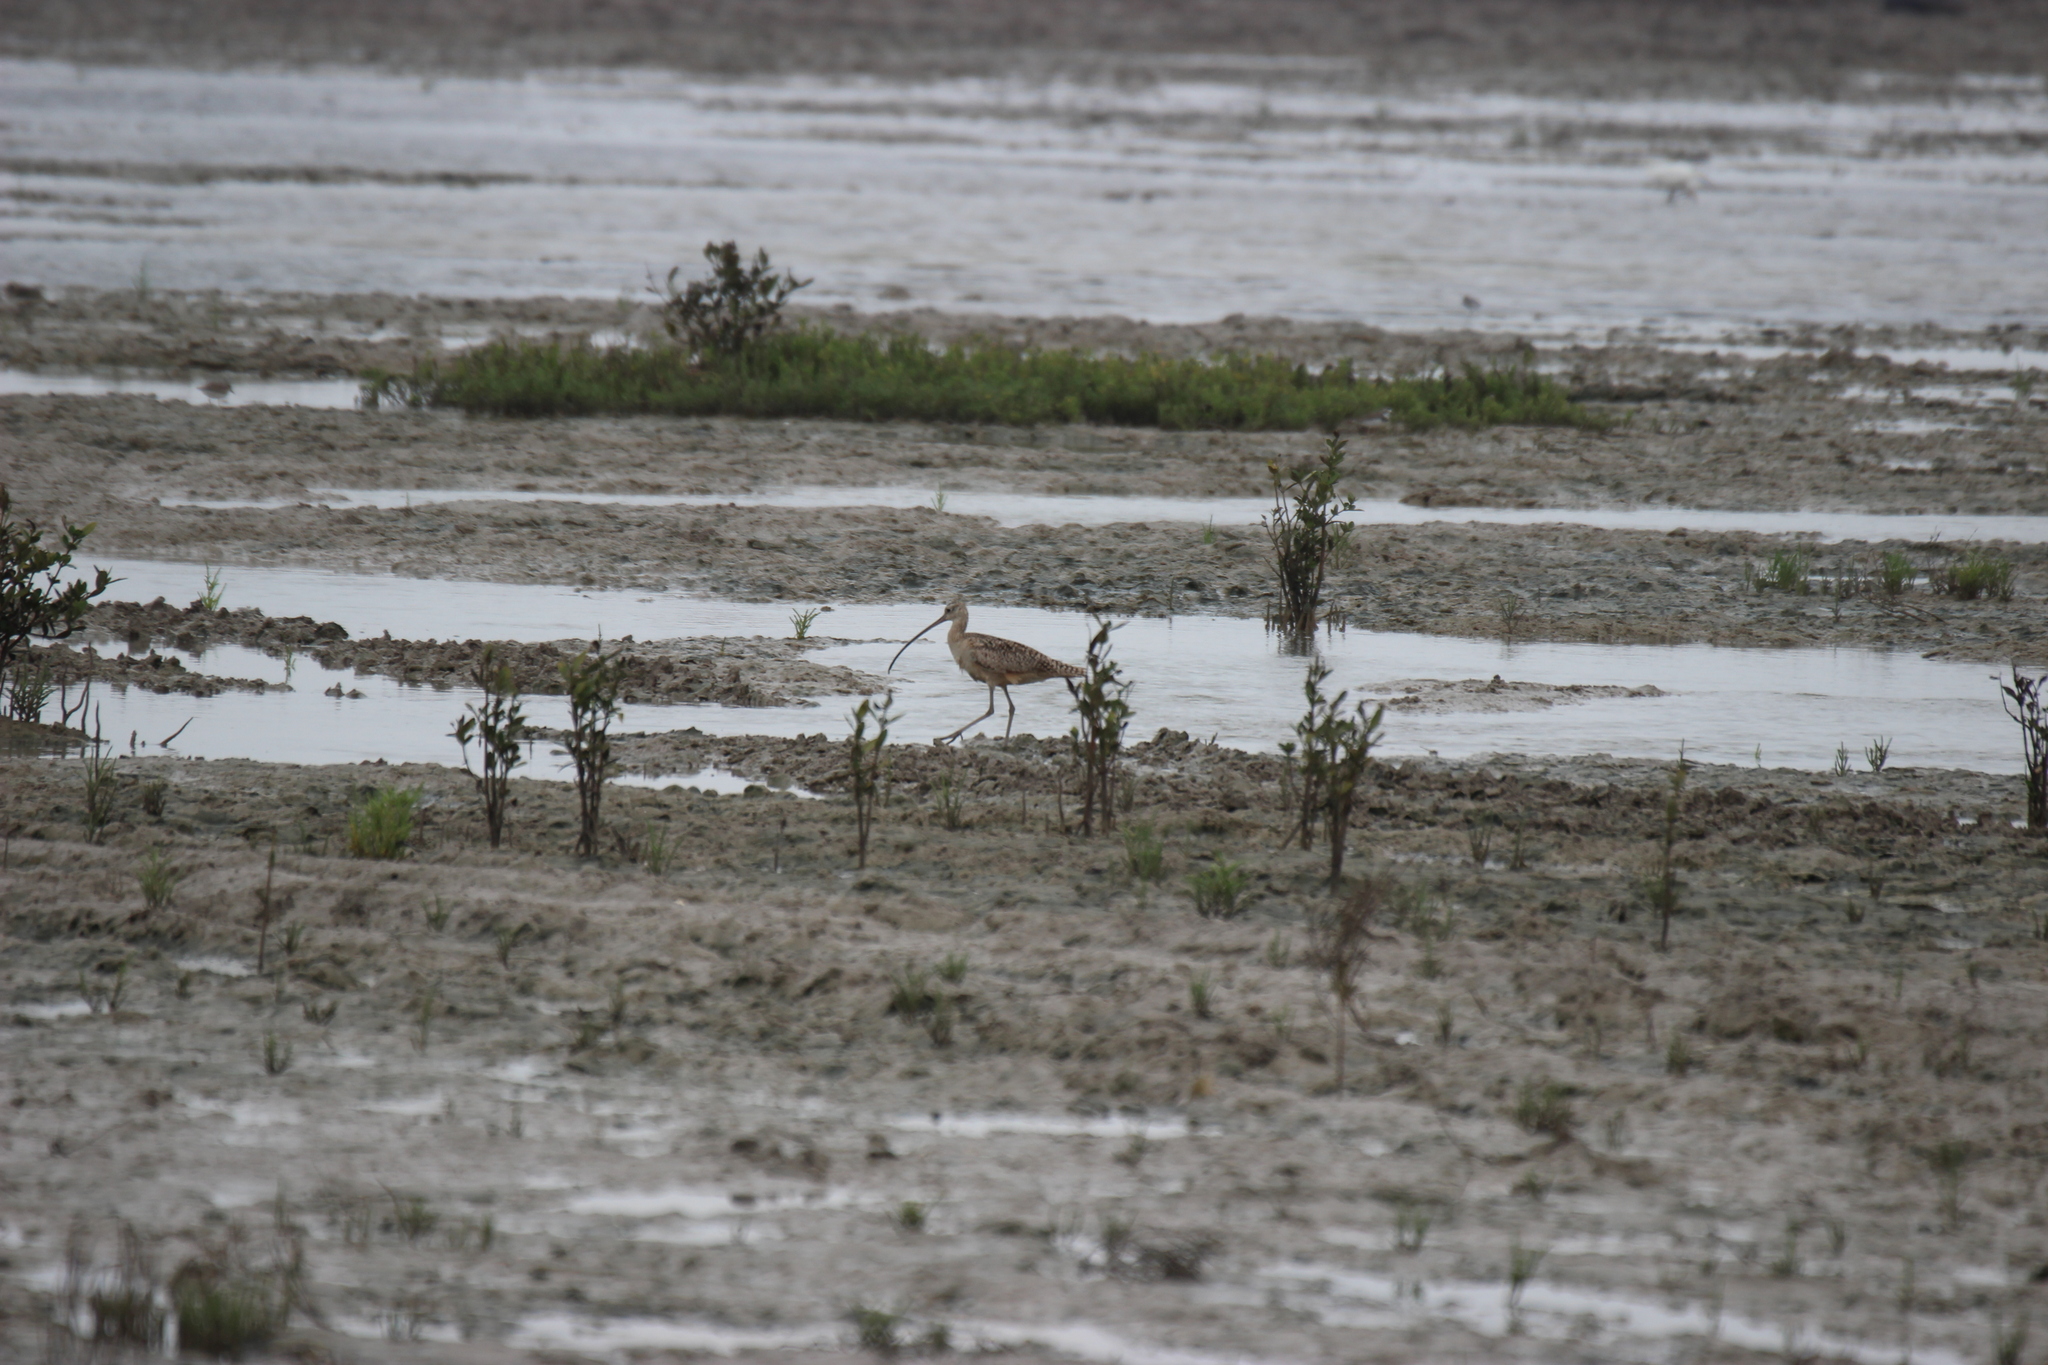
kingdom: Animalia
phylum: Chordata
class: Aves
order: Charadriiformes
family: Scolopacidae
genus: Numenius
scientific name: Numenius americanus
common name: Long-billed curlew
